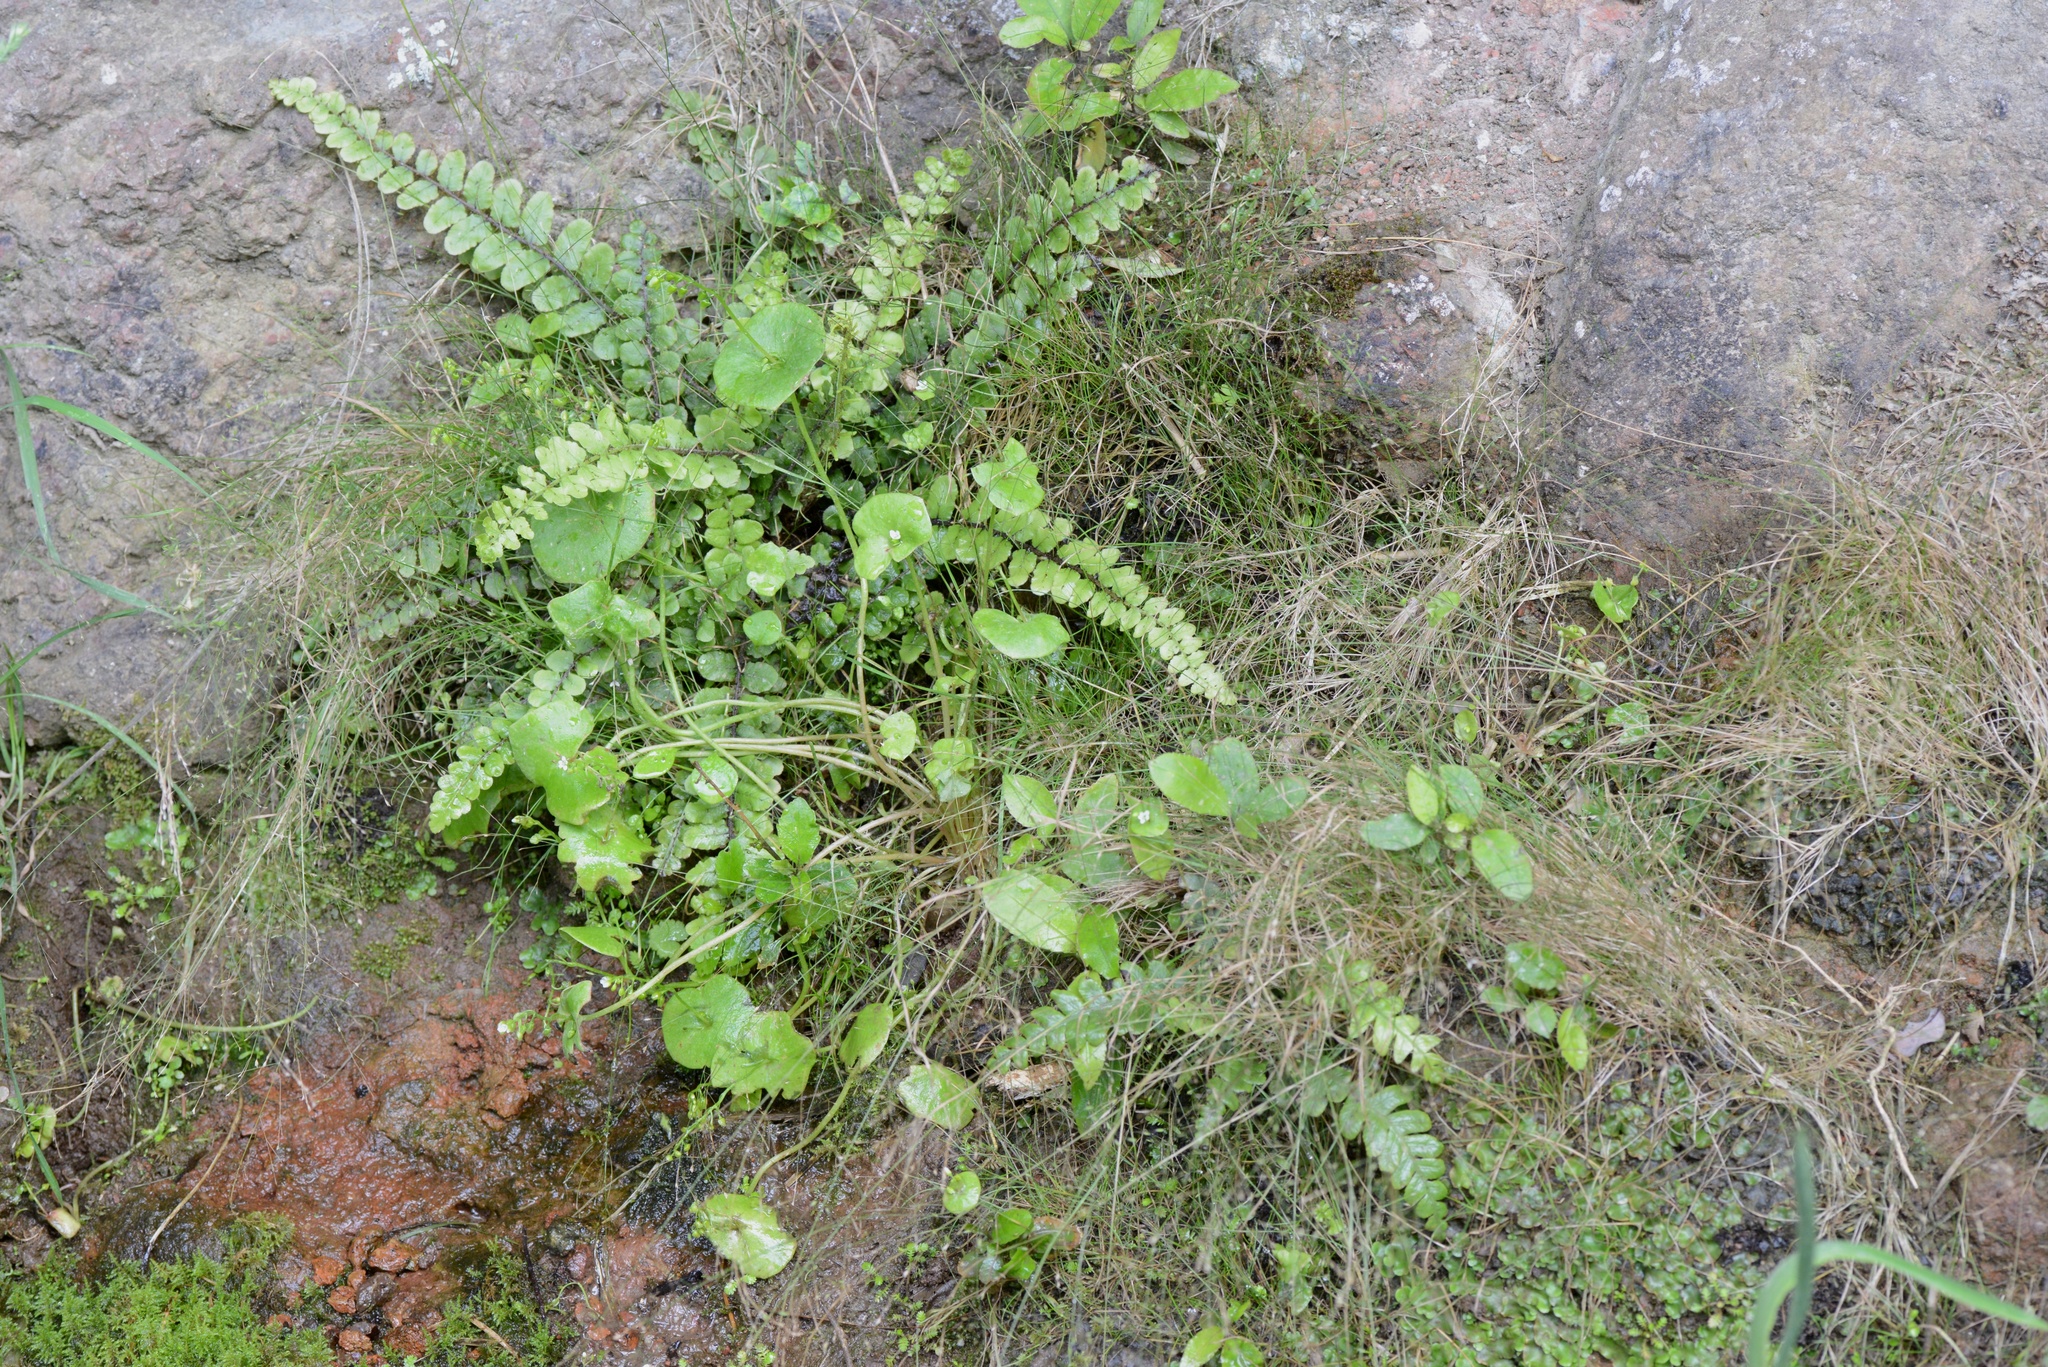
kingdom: Plantae
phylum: Tracheophyta
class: Magnoliopsida
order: Caryophyllales
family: Montiaceae
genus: Claytonia
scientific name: Claytonia perfoliata
